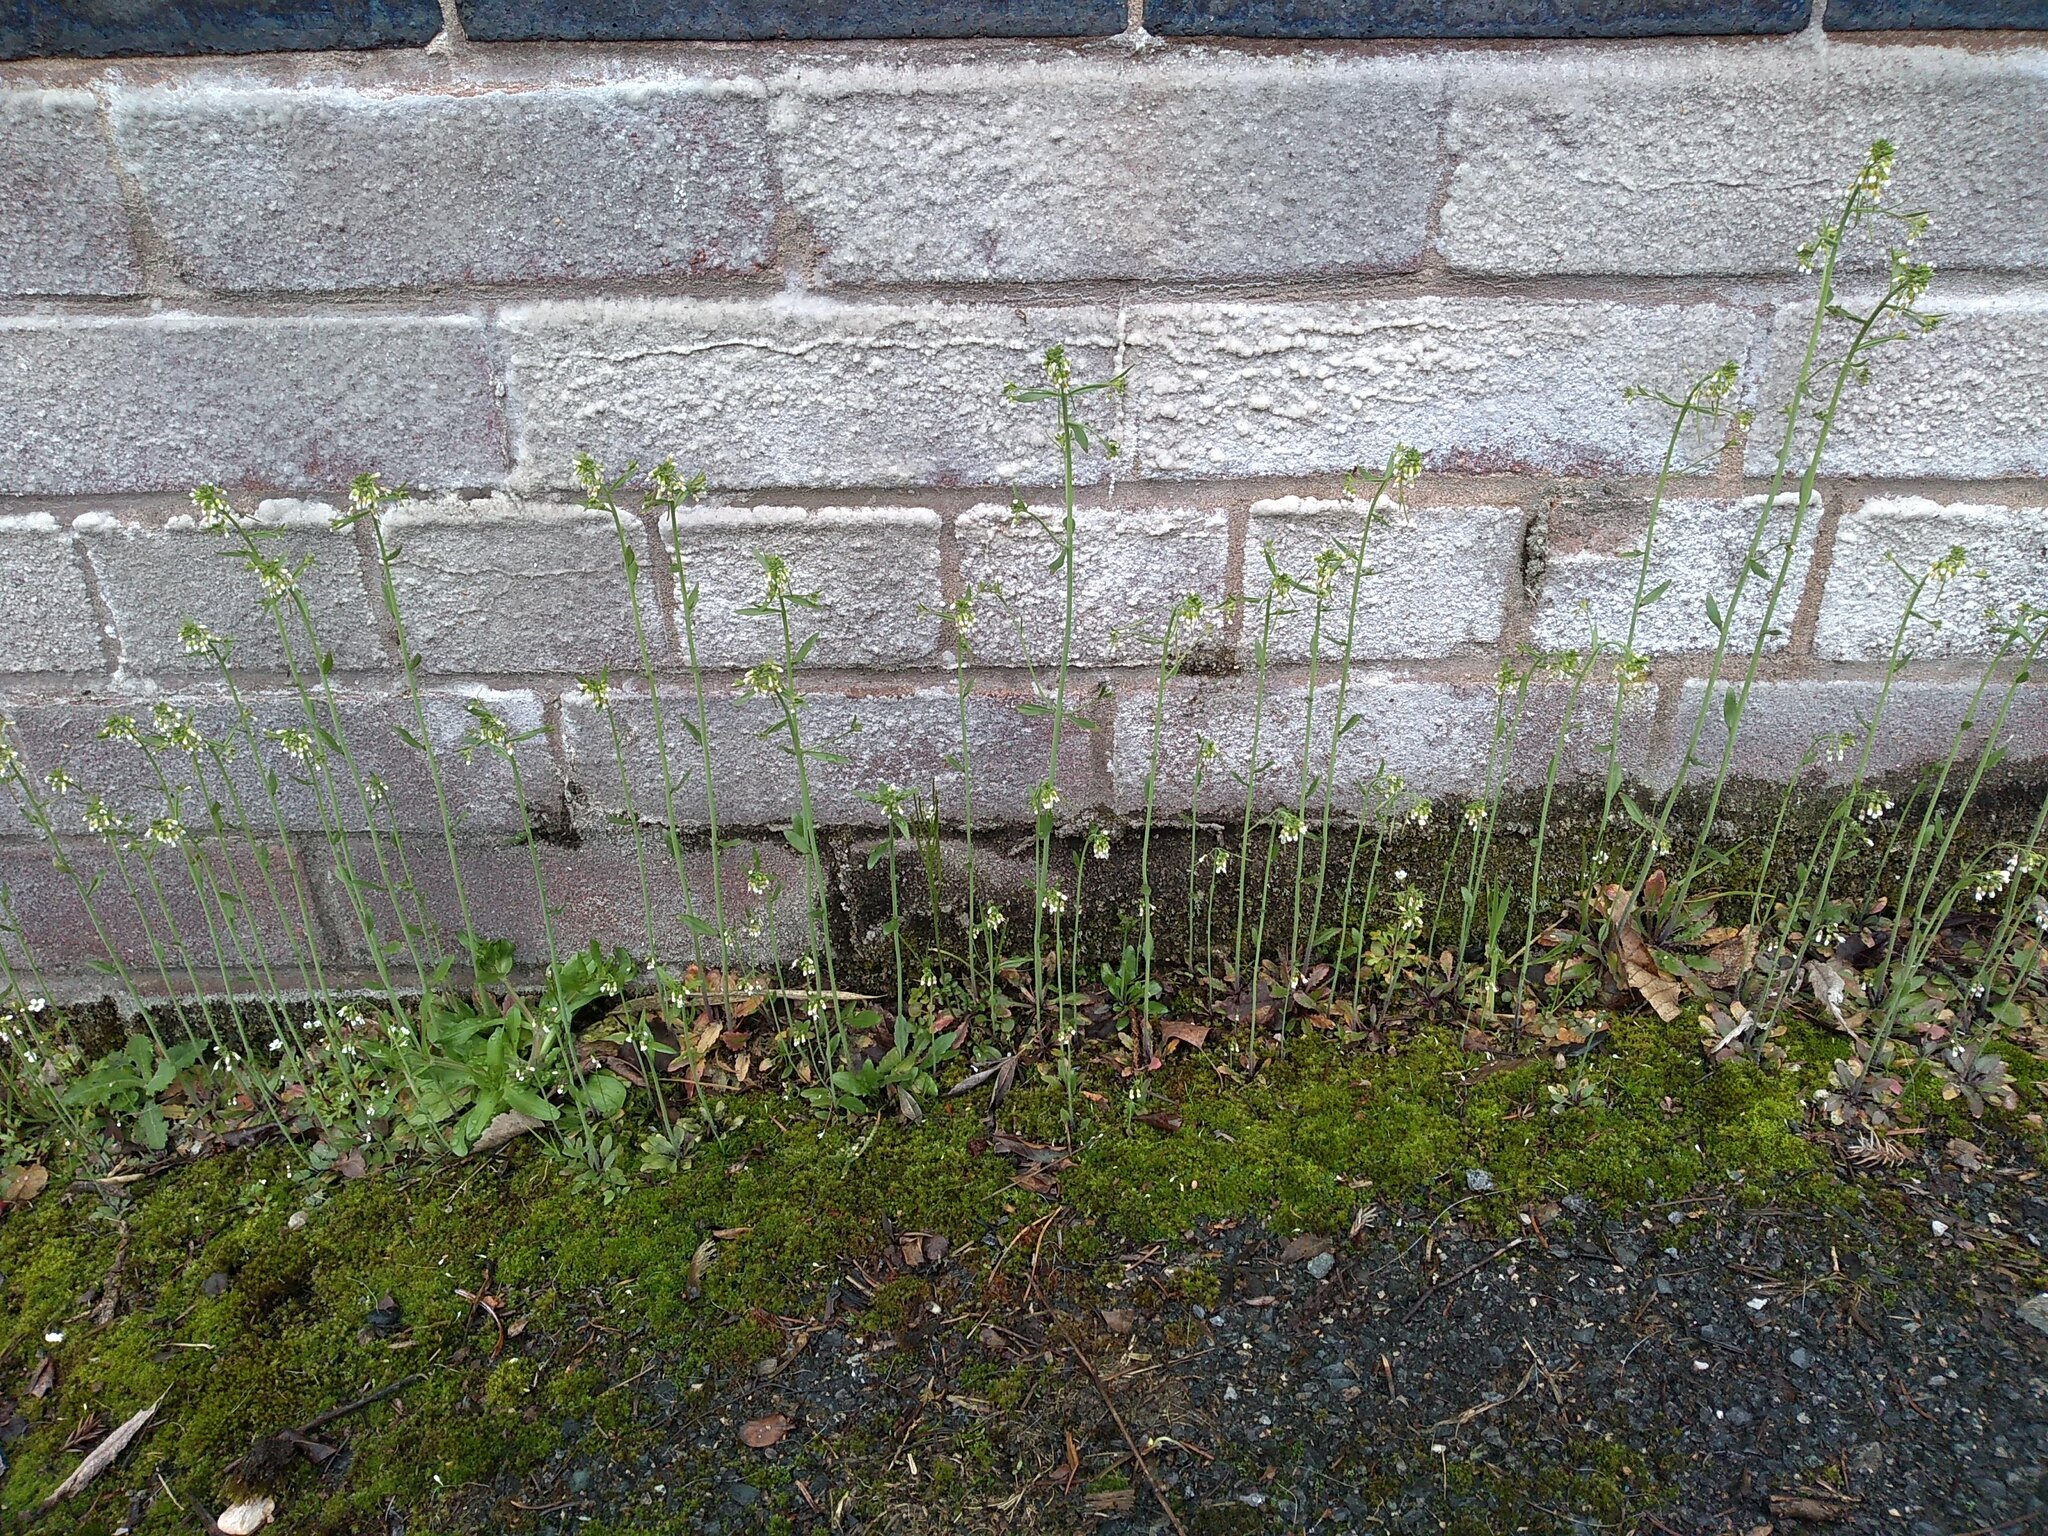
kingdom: Plantae
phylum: Tracheophyta
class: Magnoliopsida
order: Brassicales
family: Brassicaceae
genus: Arabidopsis
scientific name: Arabidopsis thaliana
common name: Thale cress
